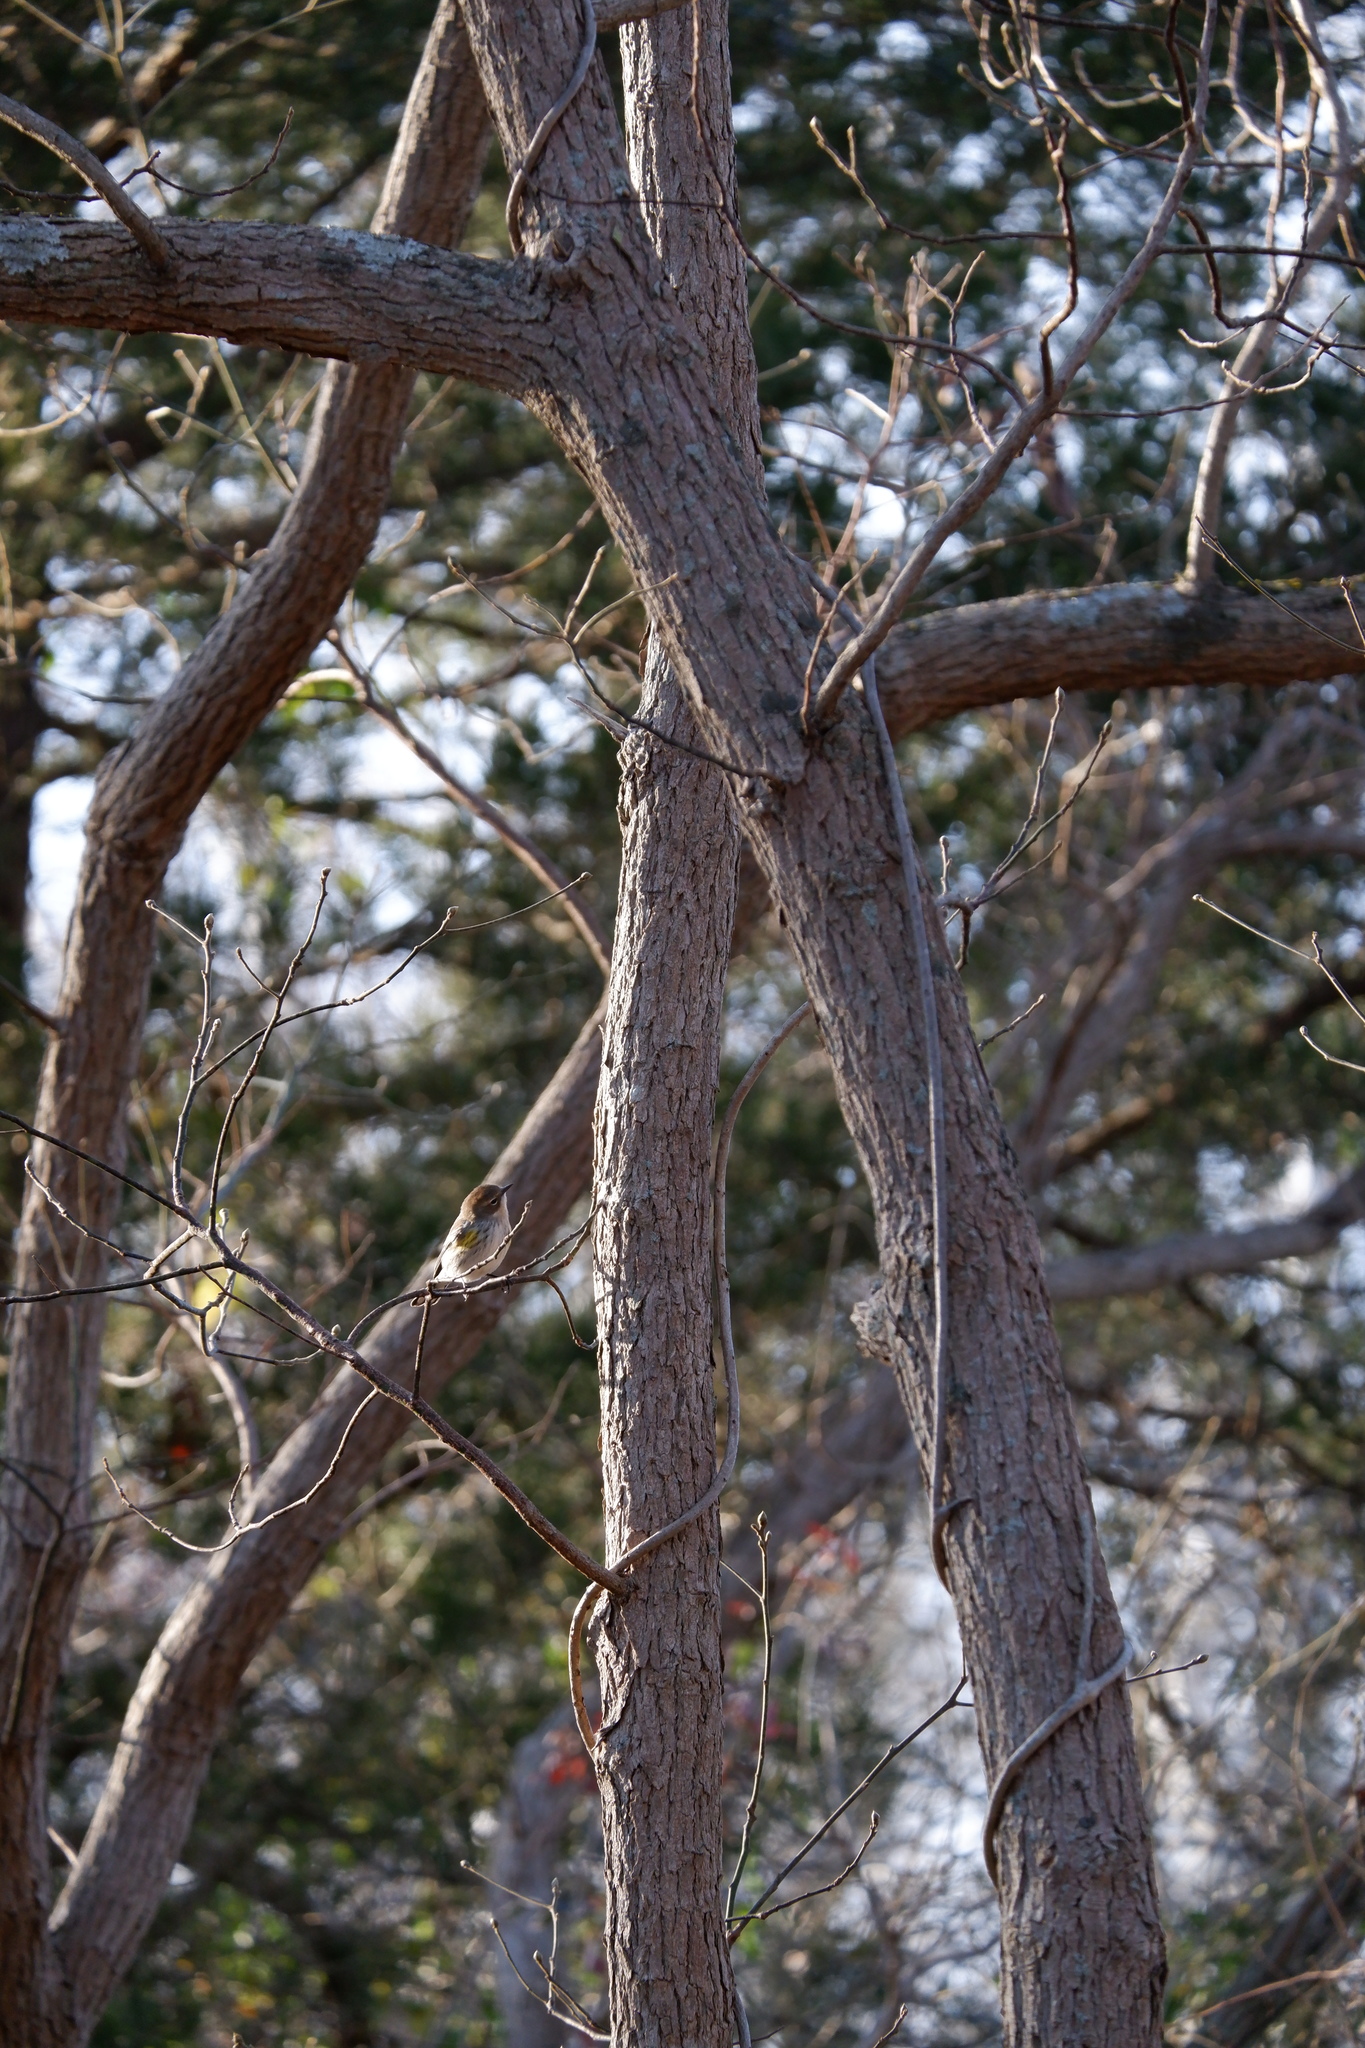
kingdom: Animalia
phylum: Chordata
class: Aves
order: Passeriformes
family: Parulidae
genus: Setophaga
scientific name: Setophaga coronata
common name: Myrtle warbler
